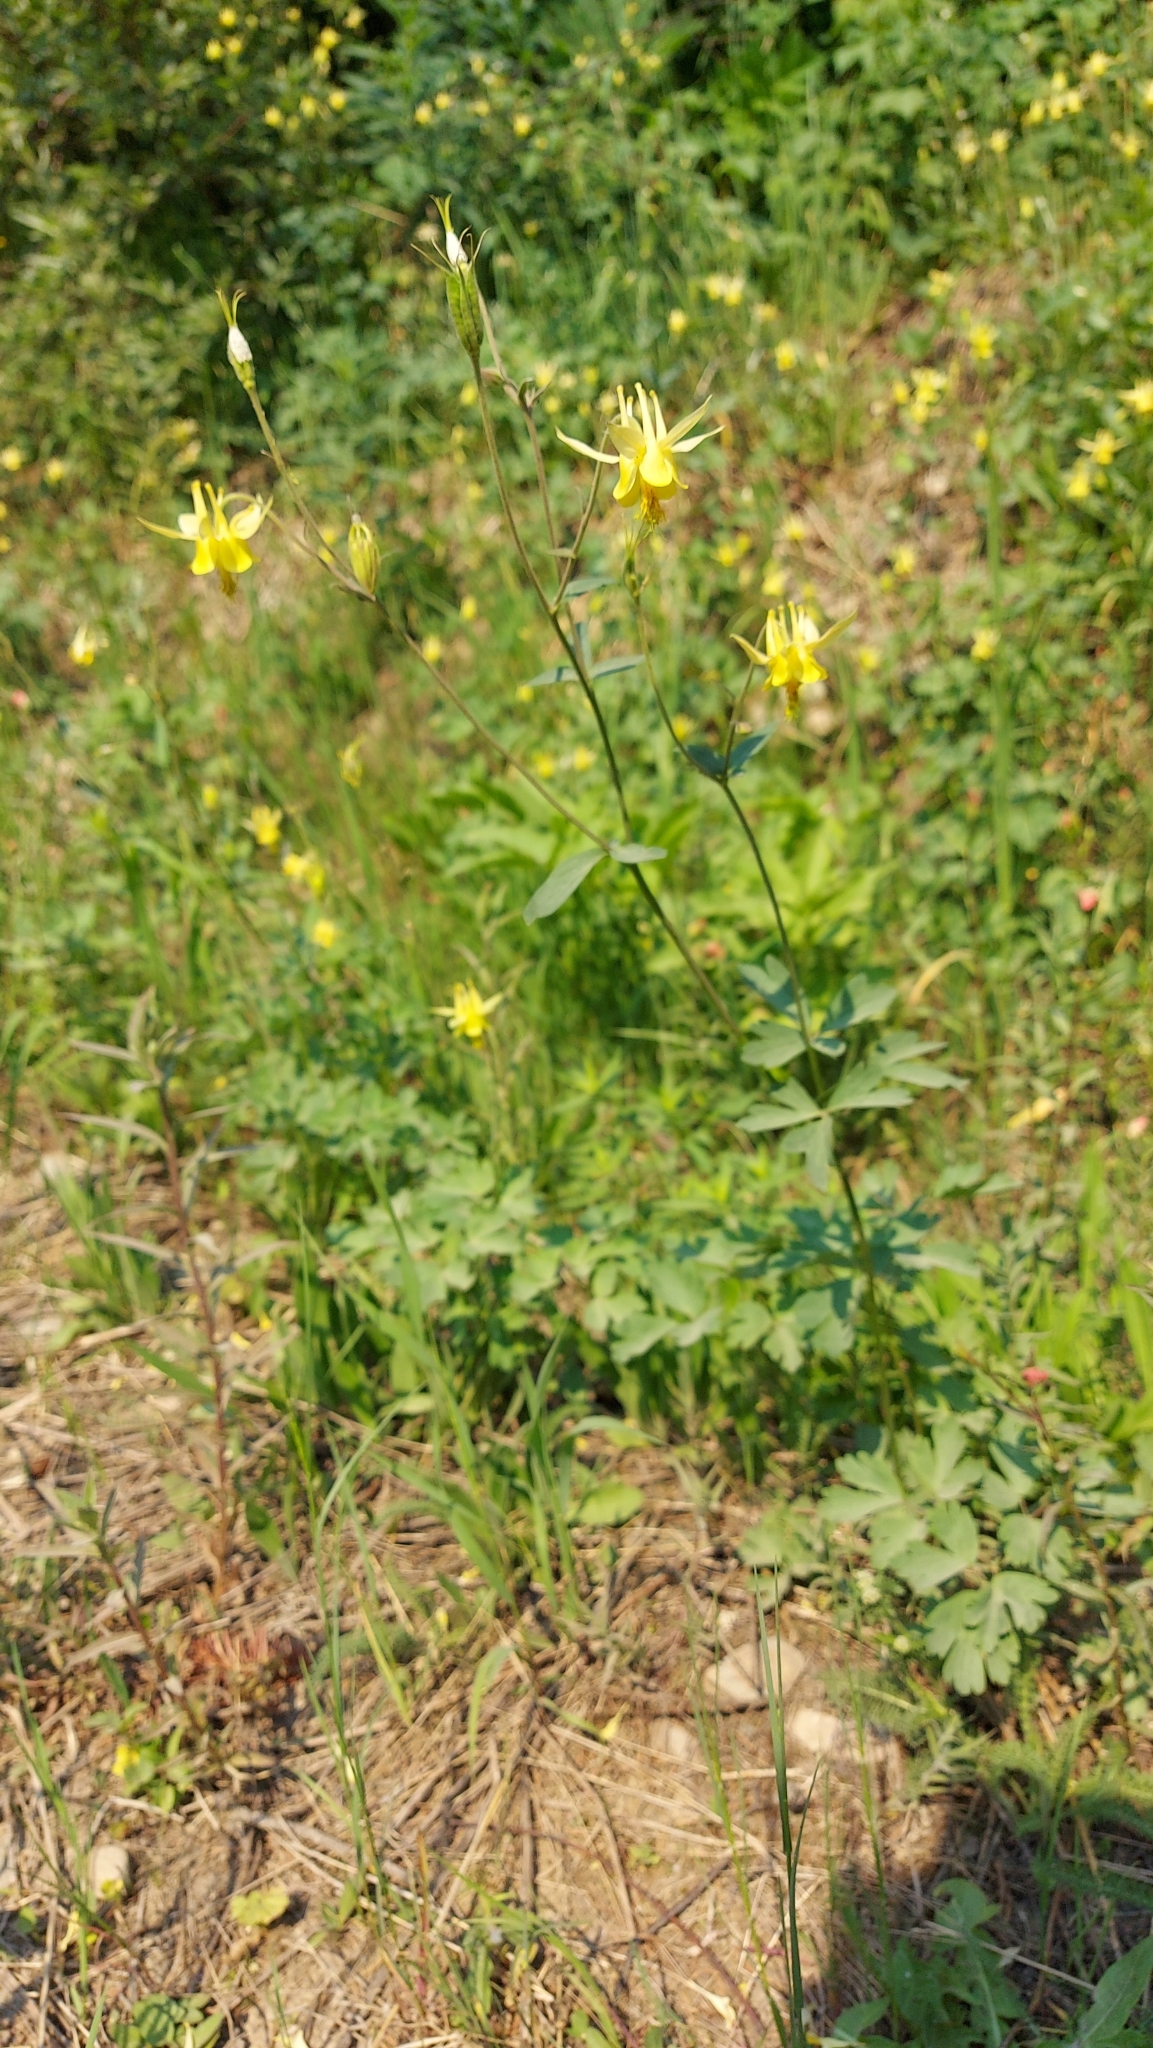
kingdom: Plantae
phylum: Tracheophyta
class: Magnoliopsida
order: Ranunculales
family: Ranunculaceae
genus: Aquilegia
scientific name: Aquilegia flavescens
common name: Yellow columbine
